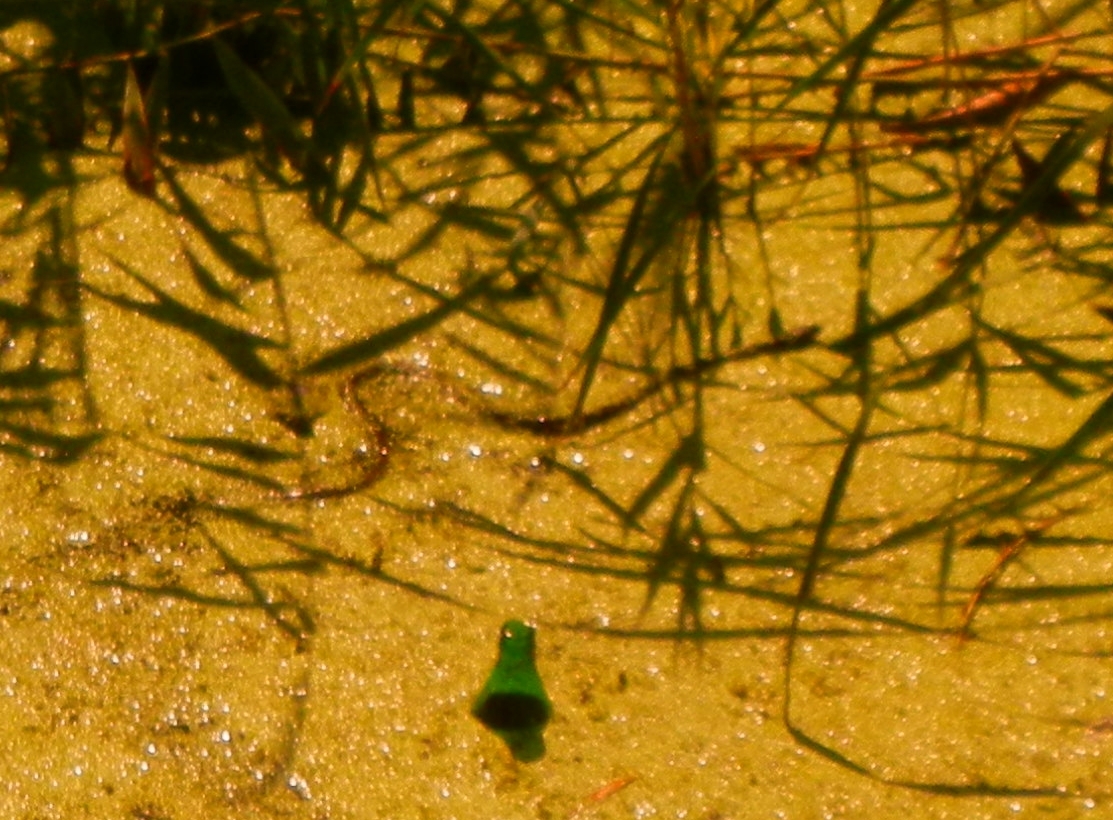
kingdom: Animalia
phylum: Chordata
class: Squamata
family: Colubridae
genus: Natrix
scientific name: Natrix tessellata
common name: Dice snake
